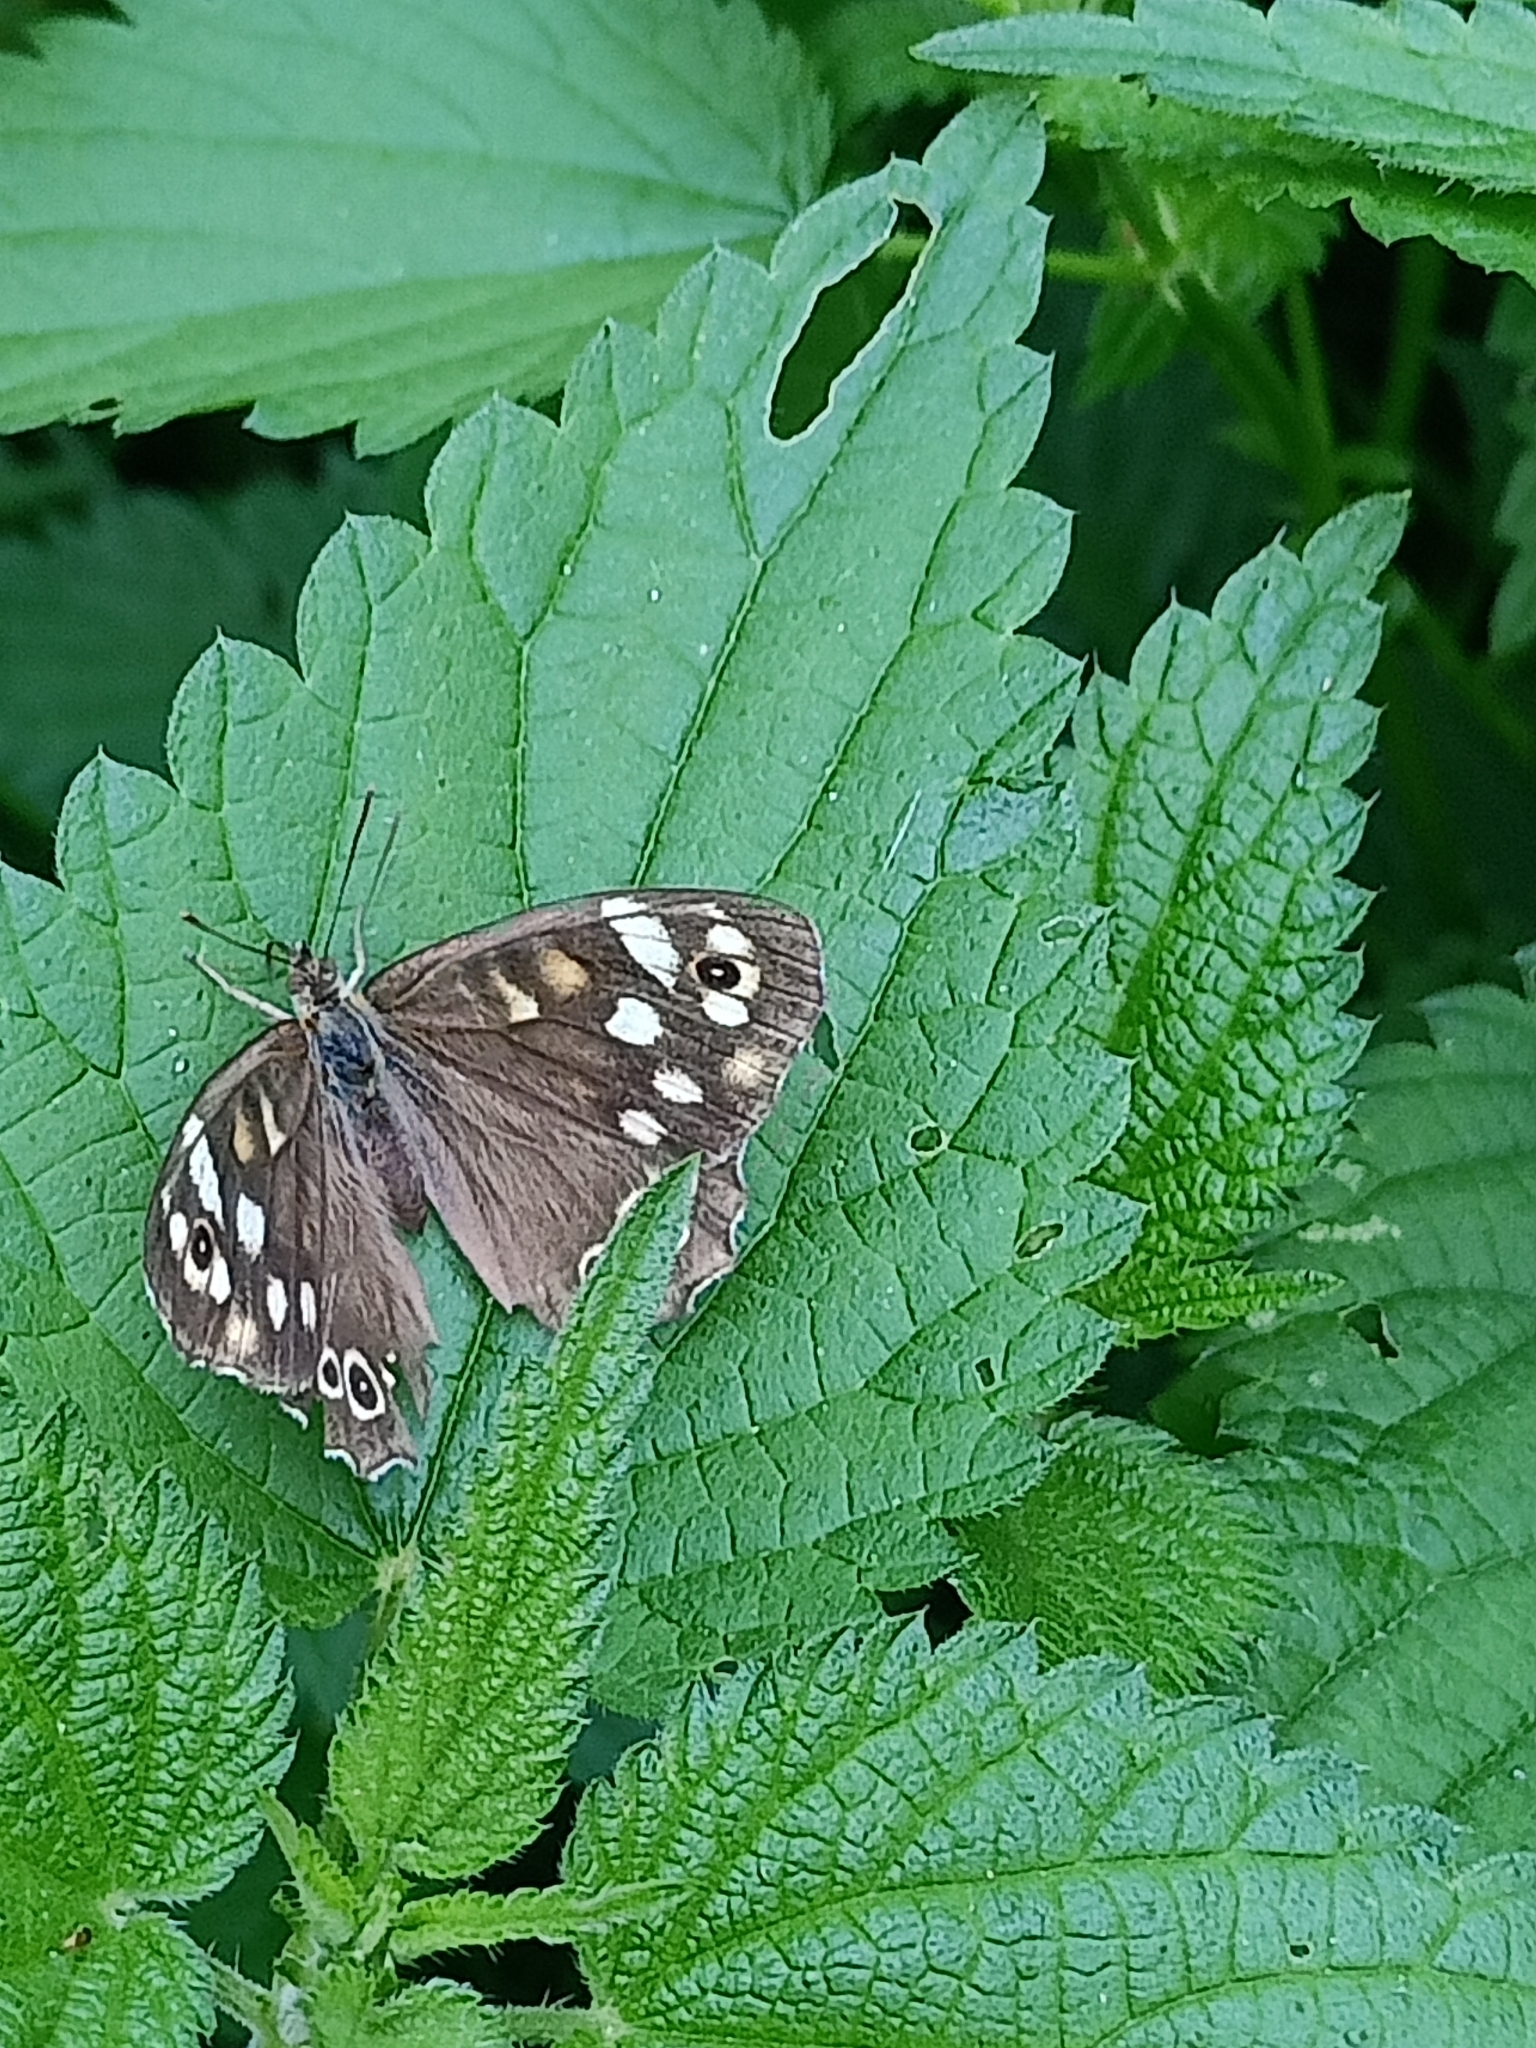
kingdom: Animalia
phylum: Arthropoda
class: Insecta
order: Lepidoptera
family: Nymphalidae
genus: Pararge
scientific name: Pararge aegeria
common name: Speckled wood
